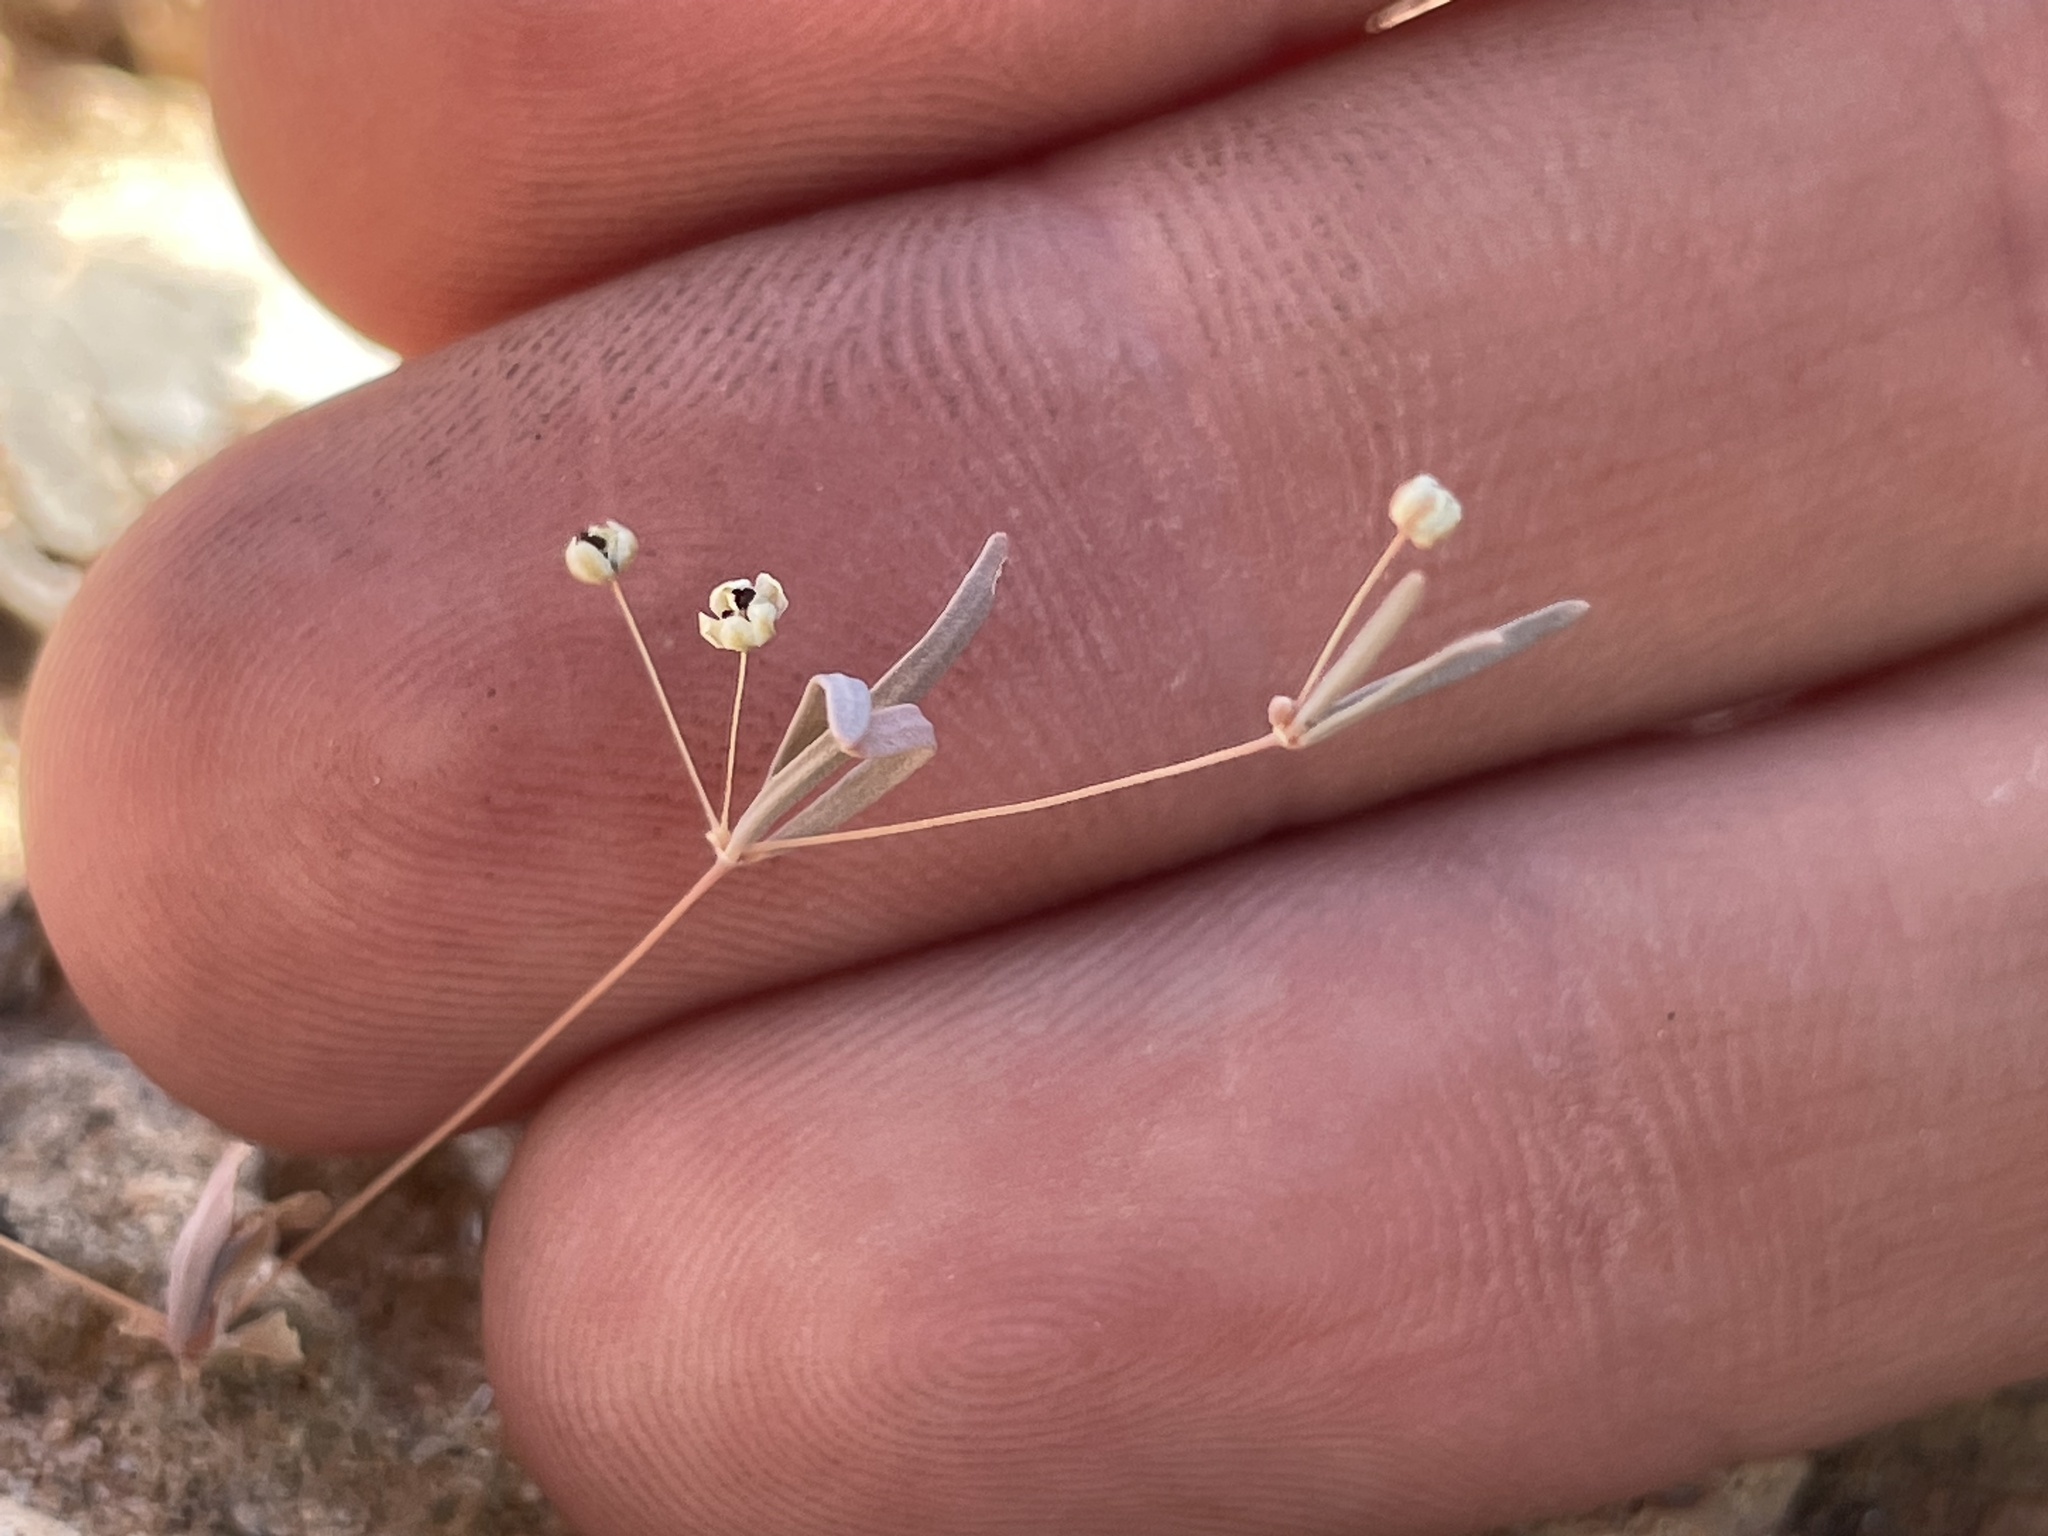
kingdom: Plantae
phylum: Tracheophyta
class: Magnoliopsida
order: Caryophyllales
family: Molluginaceae
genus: Hypertelis
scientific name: Hypertelis umbellata
